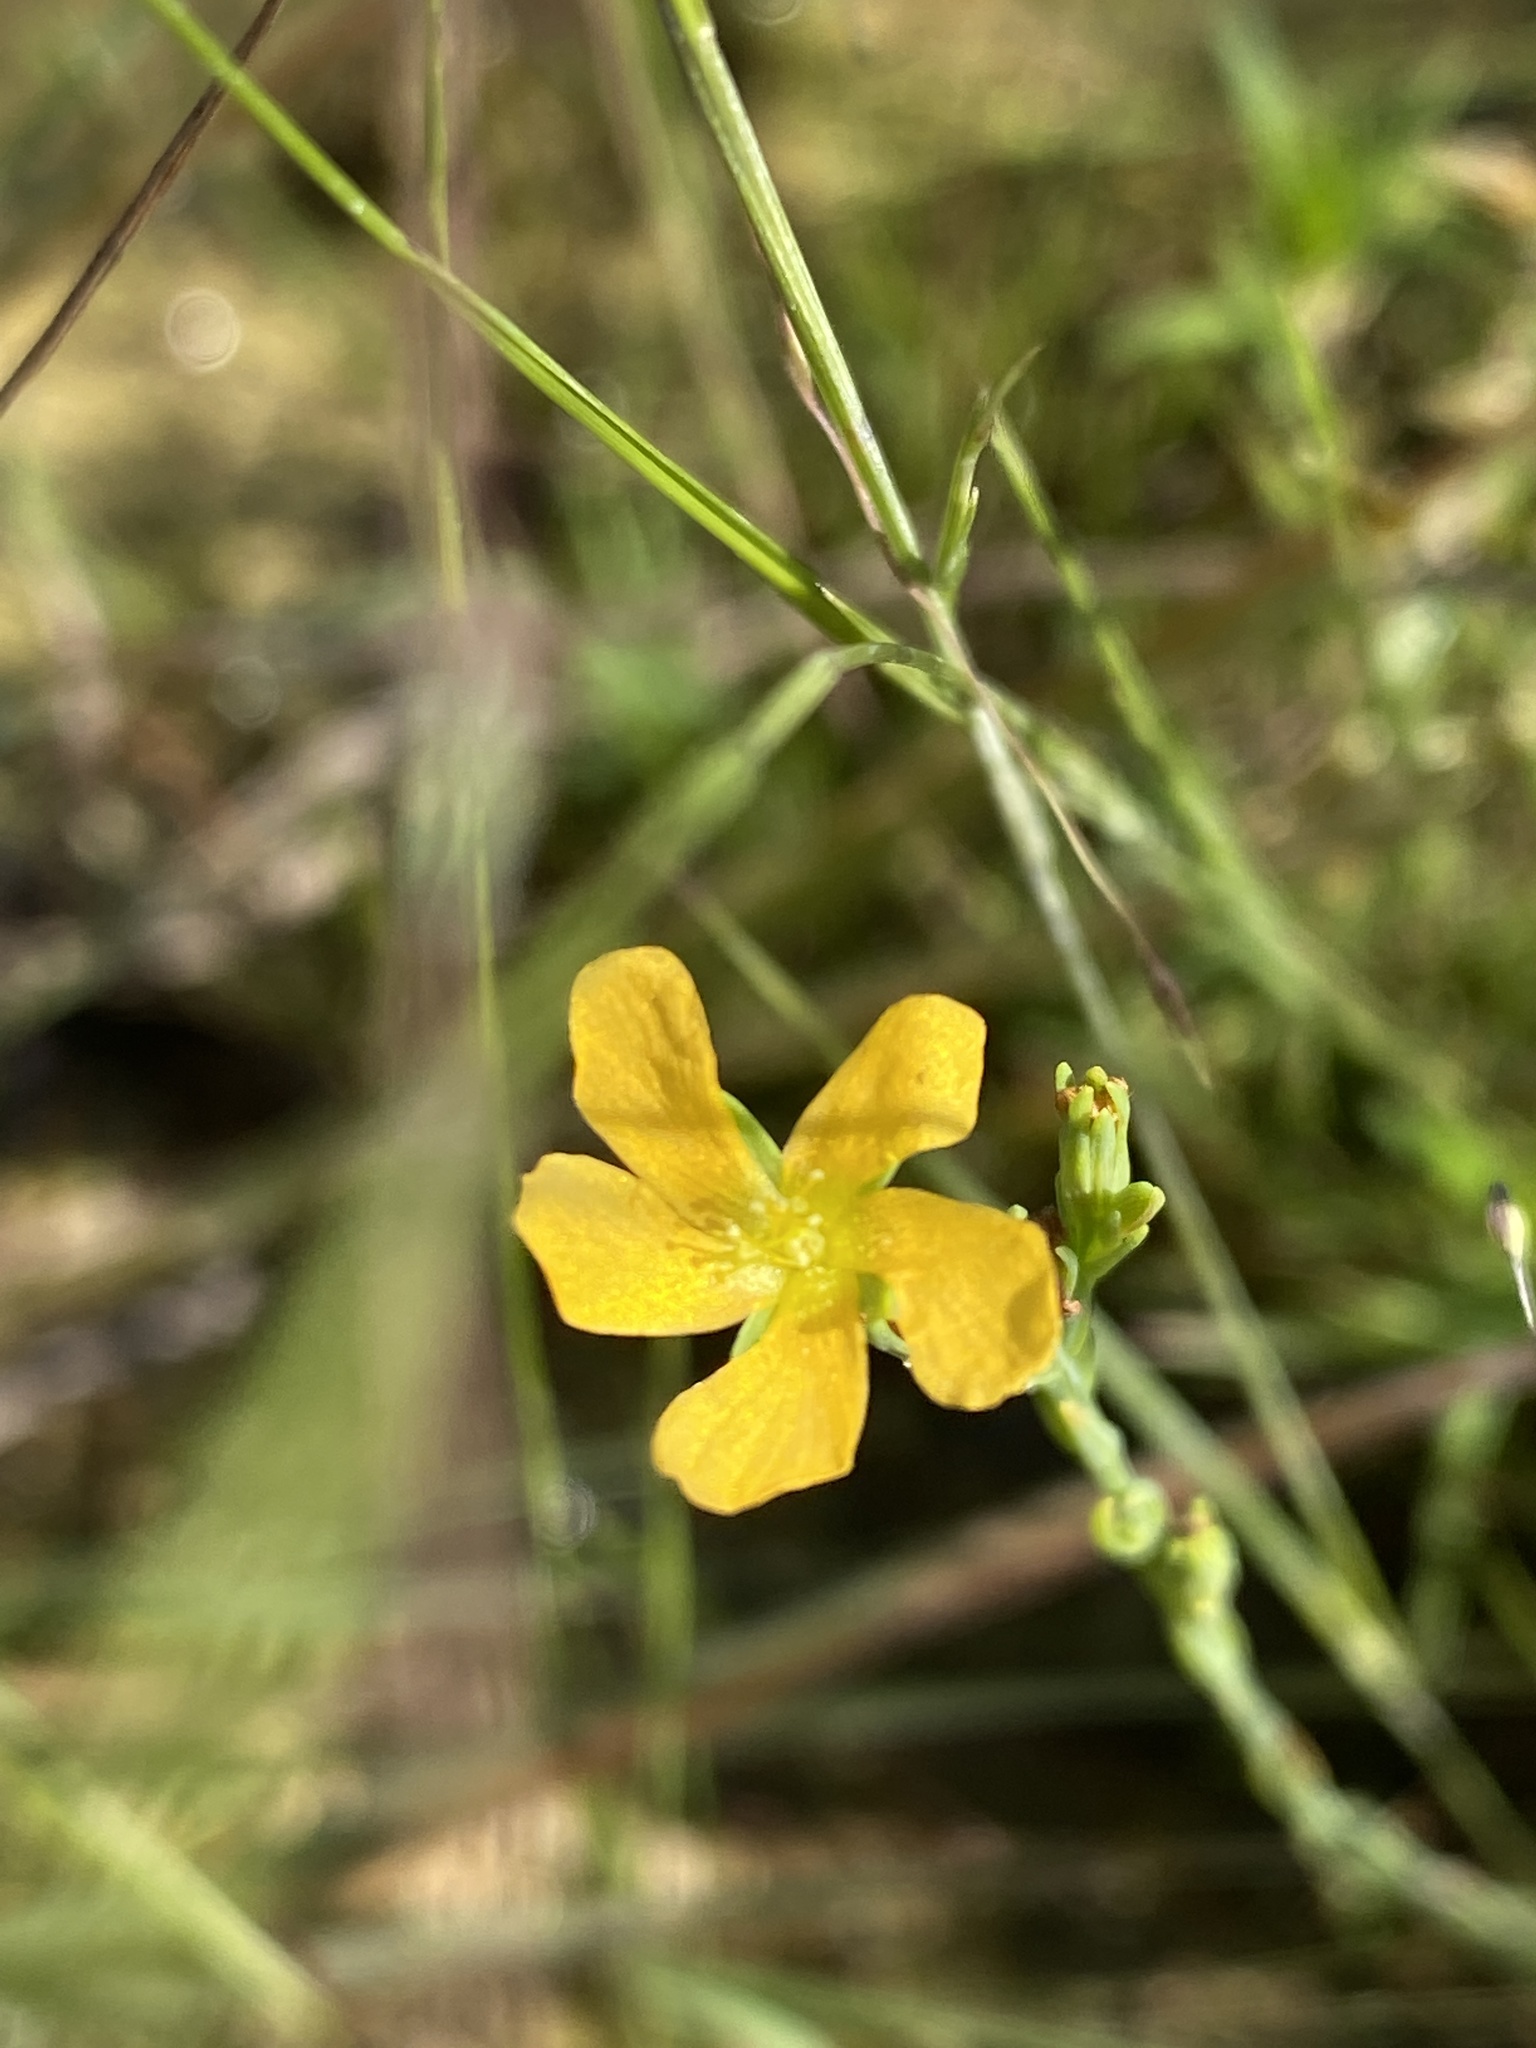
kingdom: Plantae
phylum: Tracheophyta
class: Magnoliopsida
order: Malpighiales
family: Hypericaceae
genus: Hypericum
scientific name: Hypericum drummondii
